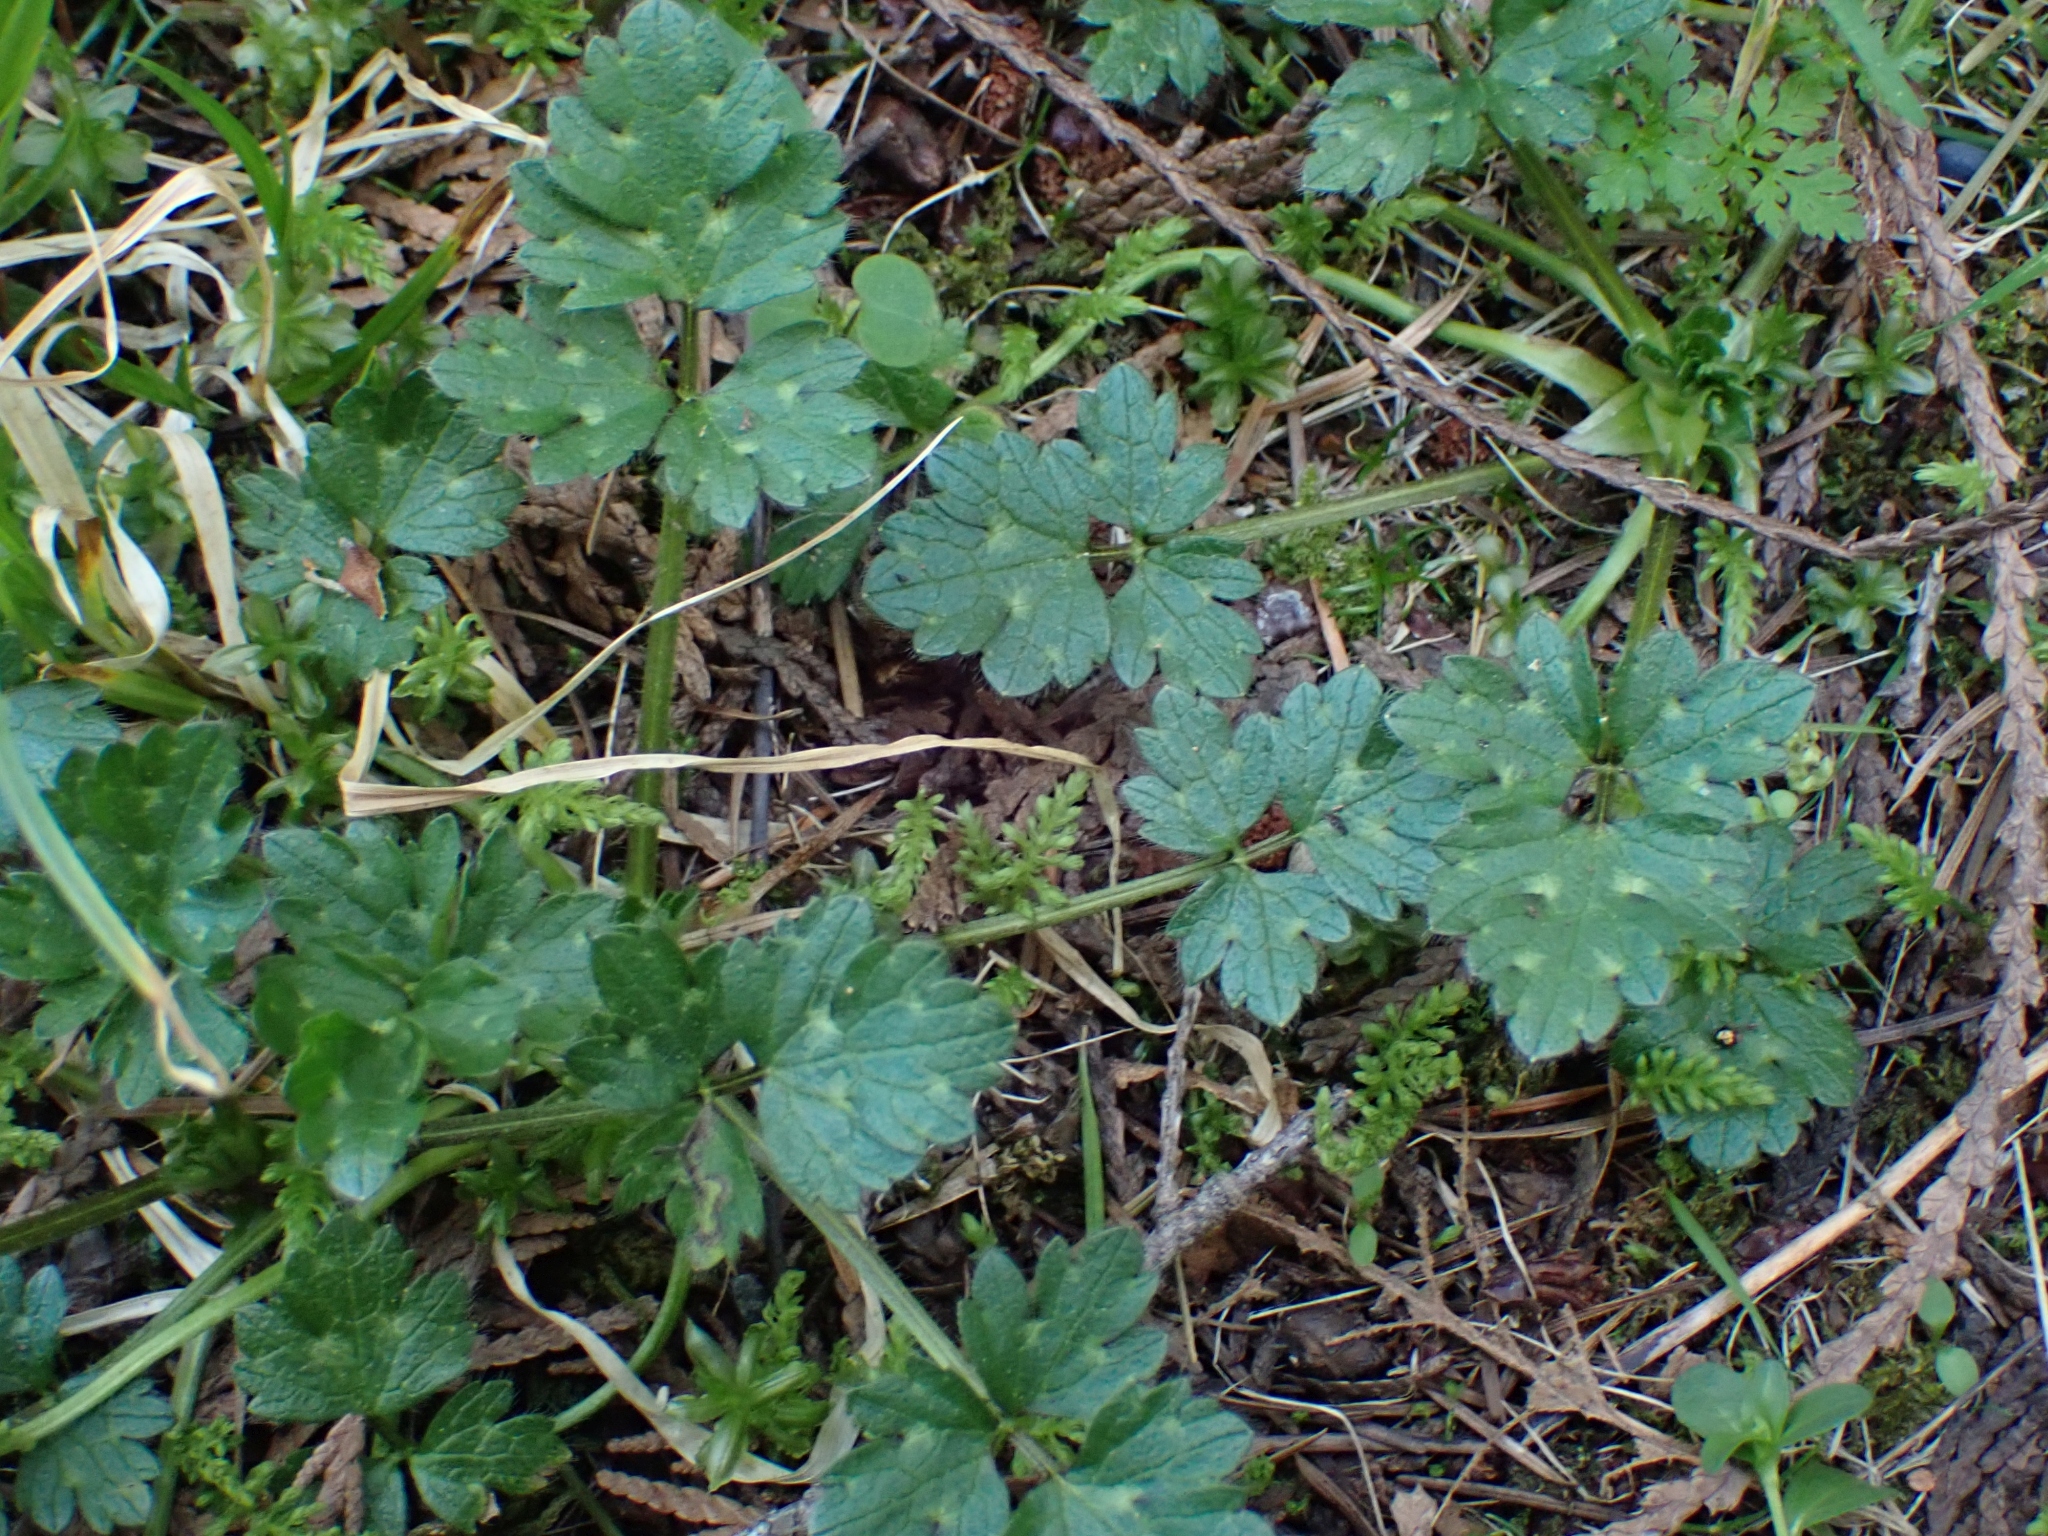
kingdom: Plantae
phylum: Tracheophyta
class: Magnoliopsida
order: Ranunculales
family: Ranunculaceae
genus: Ranunculus
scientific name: Ranunculus repens
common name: Creeping buttercup
